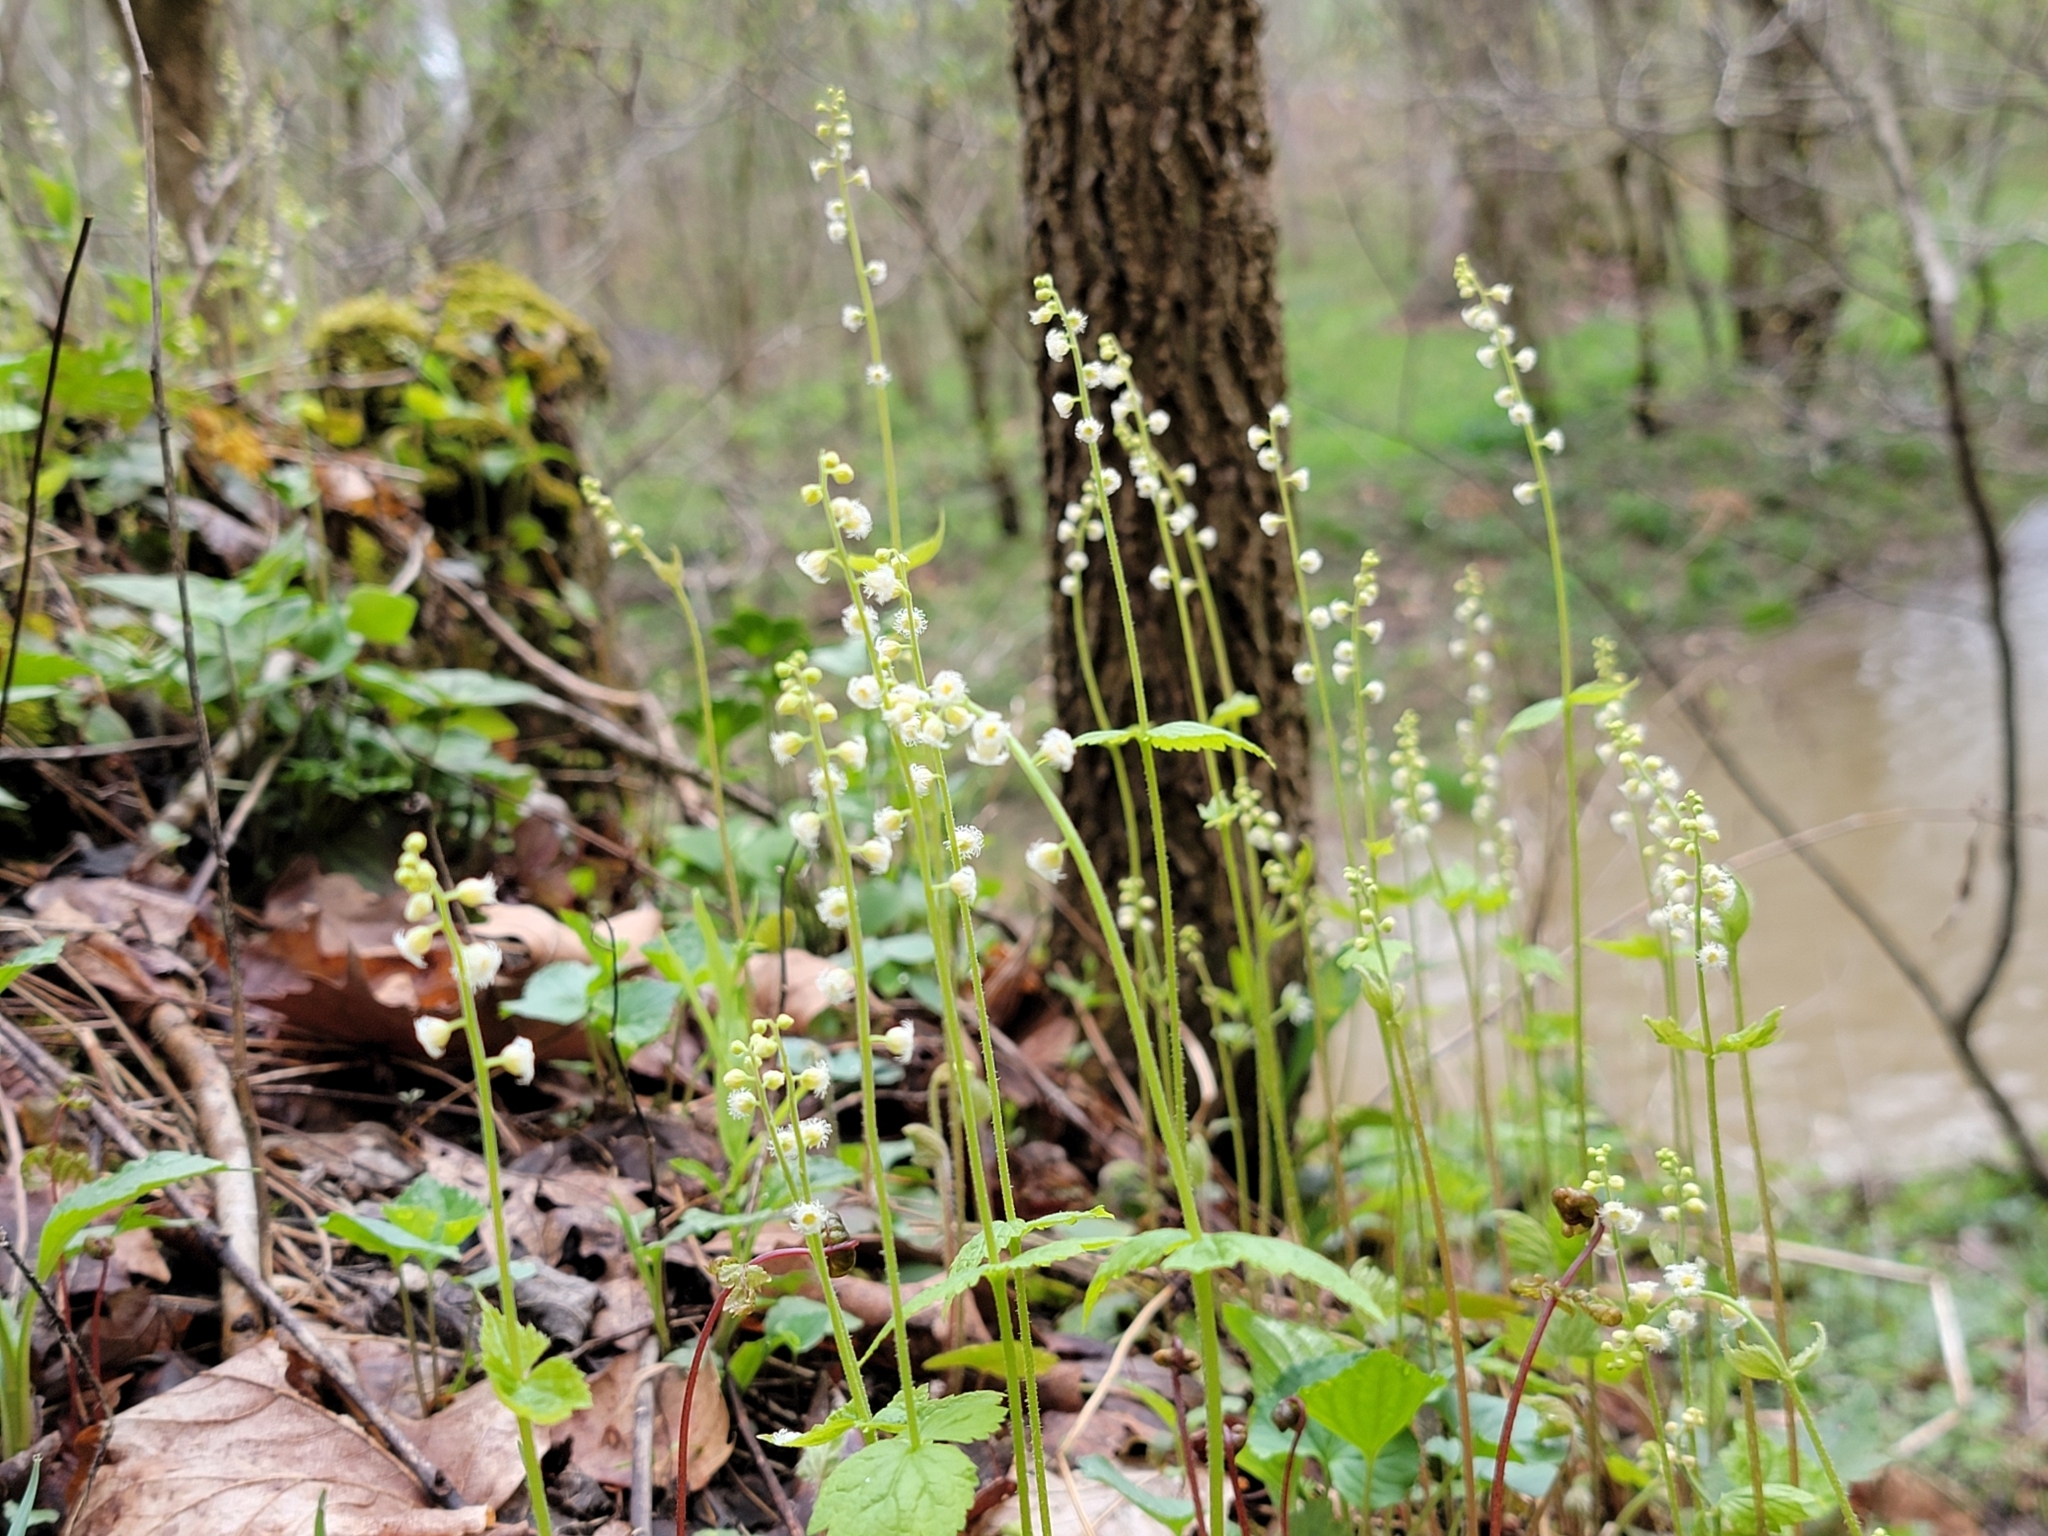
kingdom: Plantae
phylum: Tracheophyta
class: Magnoliopsida
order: Saxifragales
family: Saxifragaceae
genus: Mitella
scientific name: Mitella diphylla
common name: Coolwort
